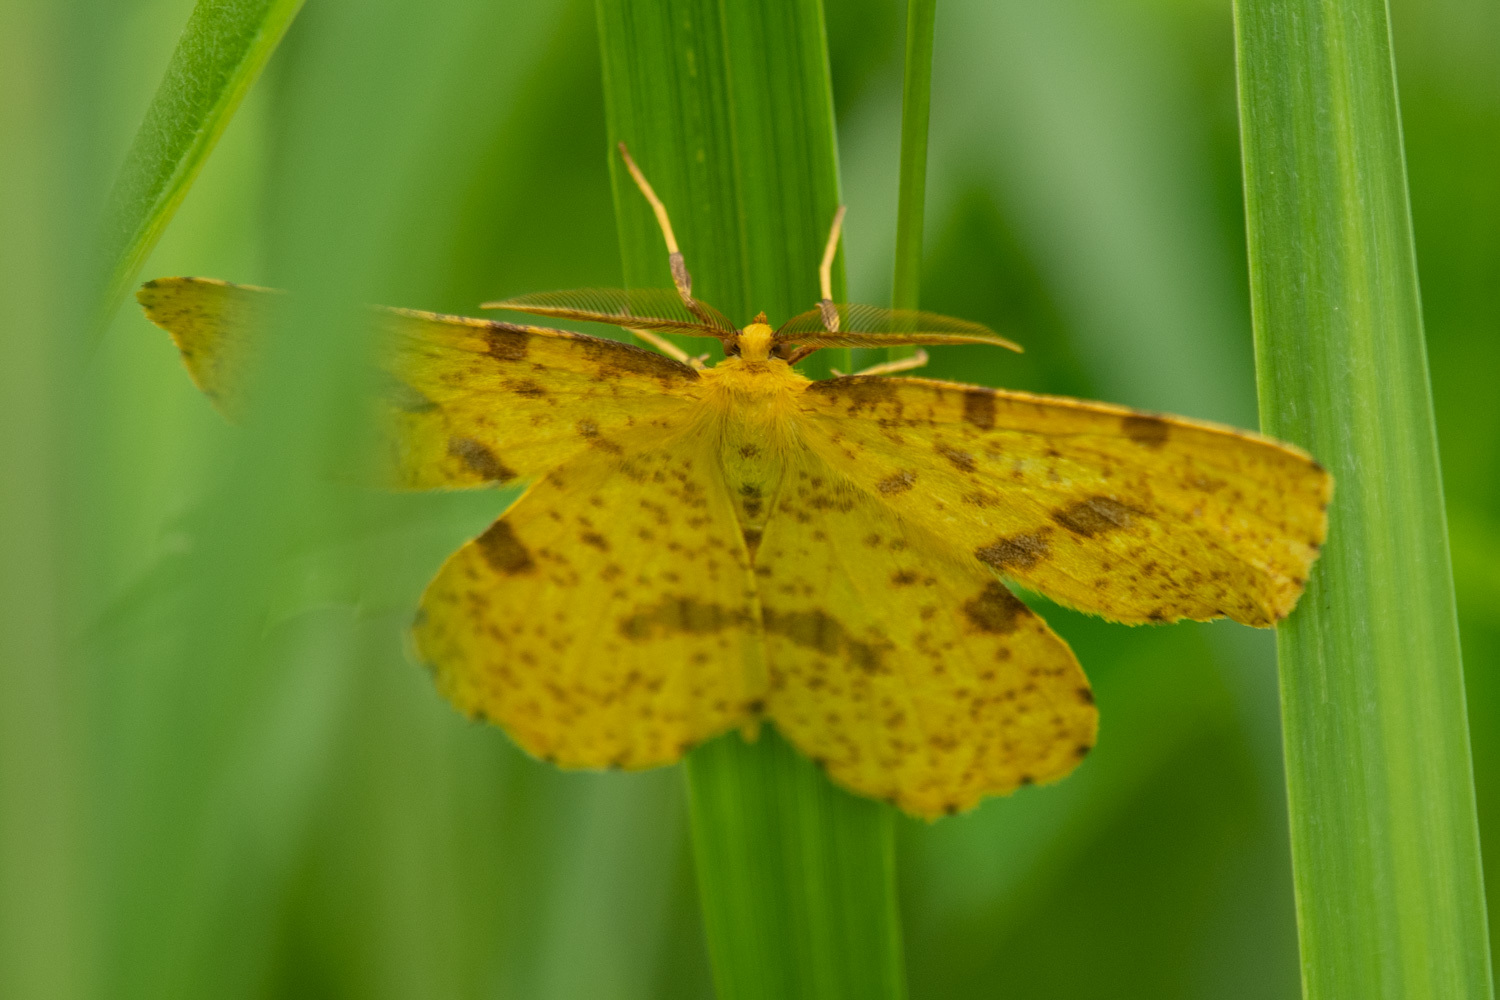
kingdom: Animalia
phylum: Arthropoda
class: Insecta
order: Lepidoptera
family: Geometridae
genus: Xanthotype
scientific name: Xanthotype
